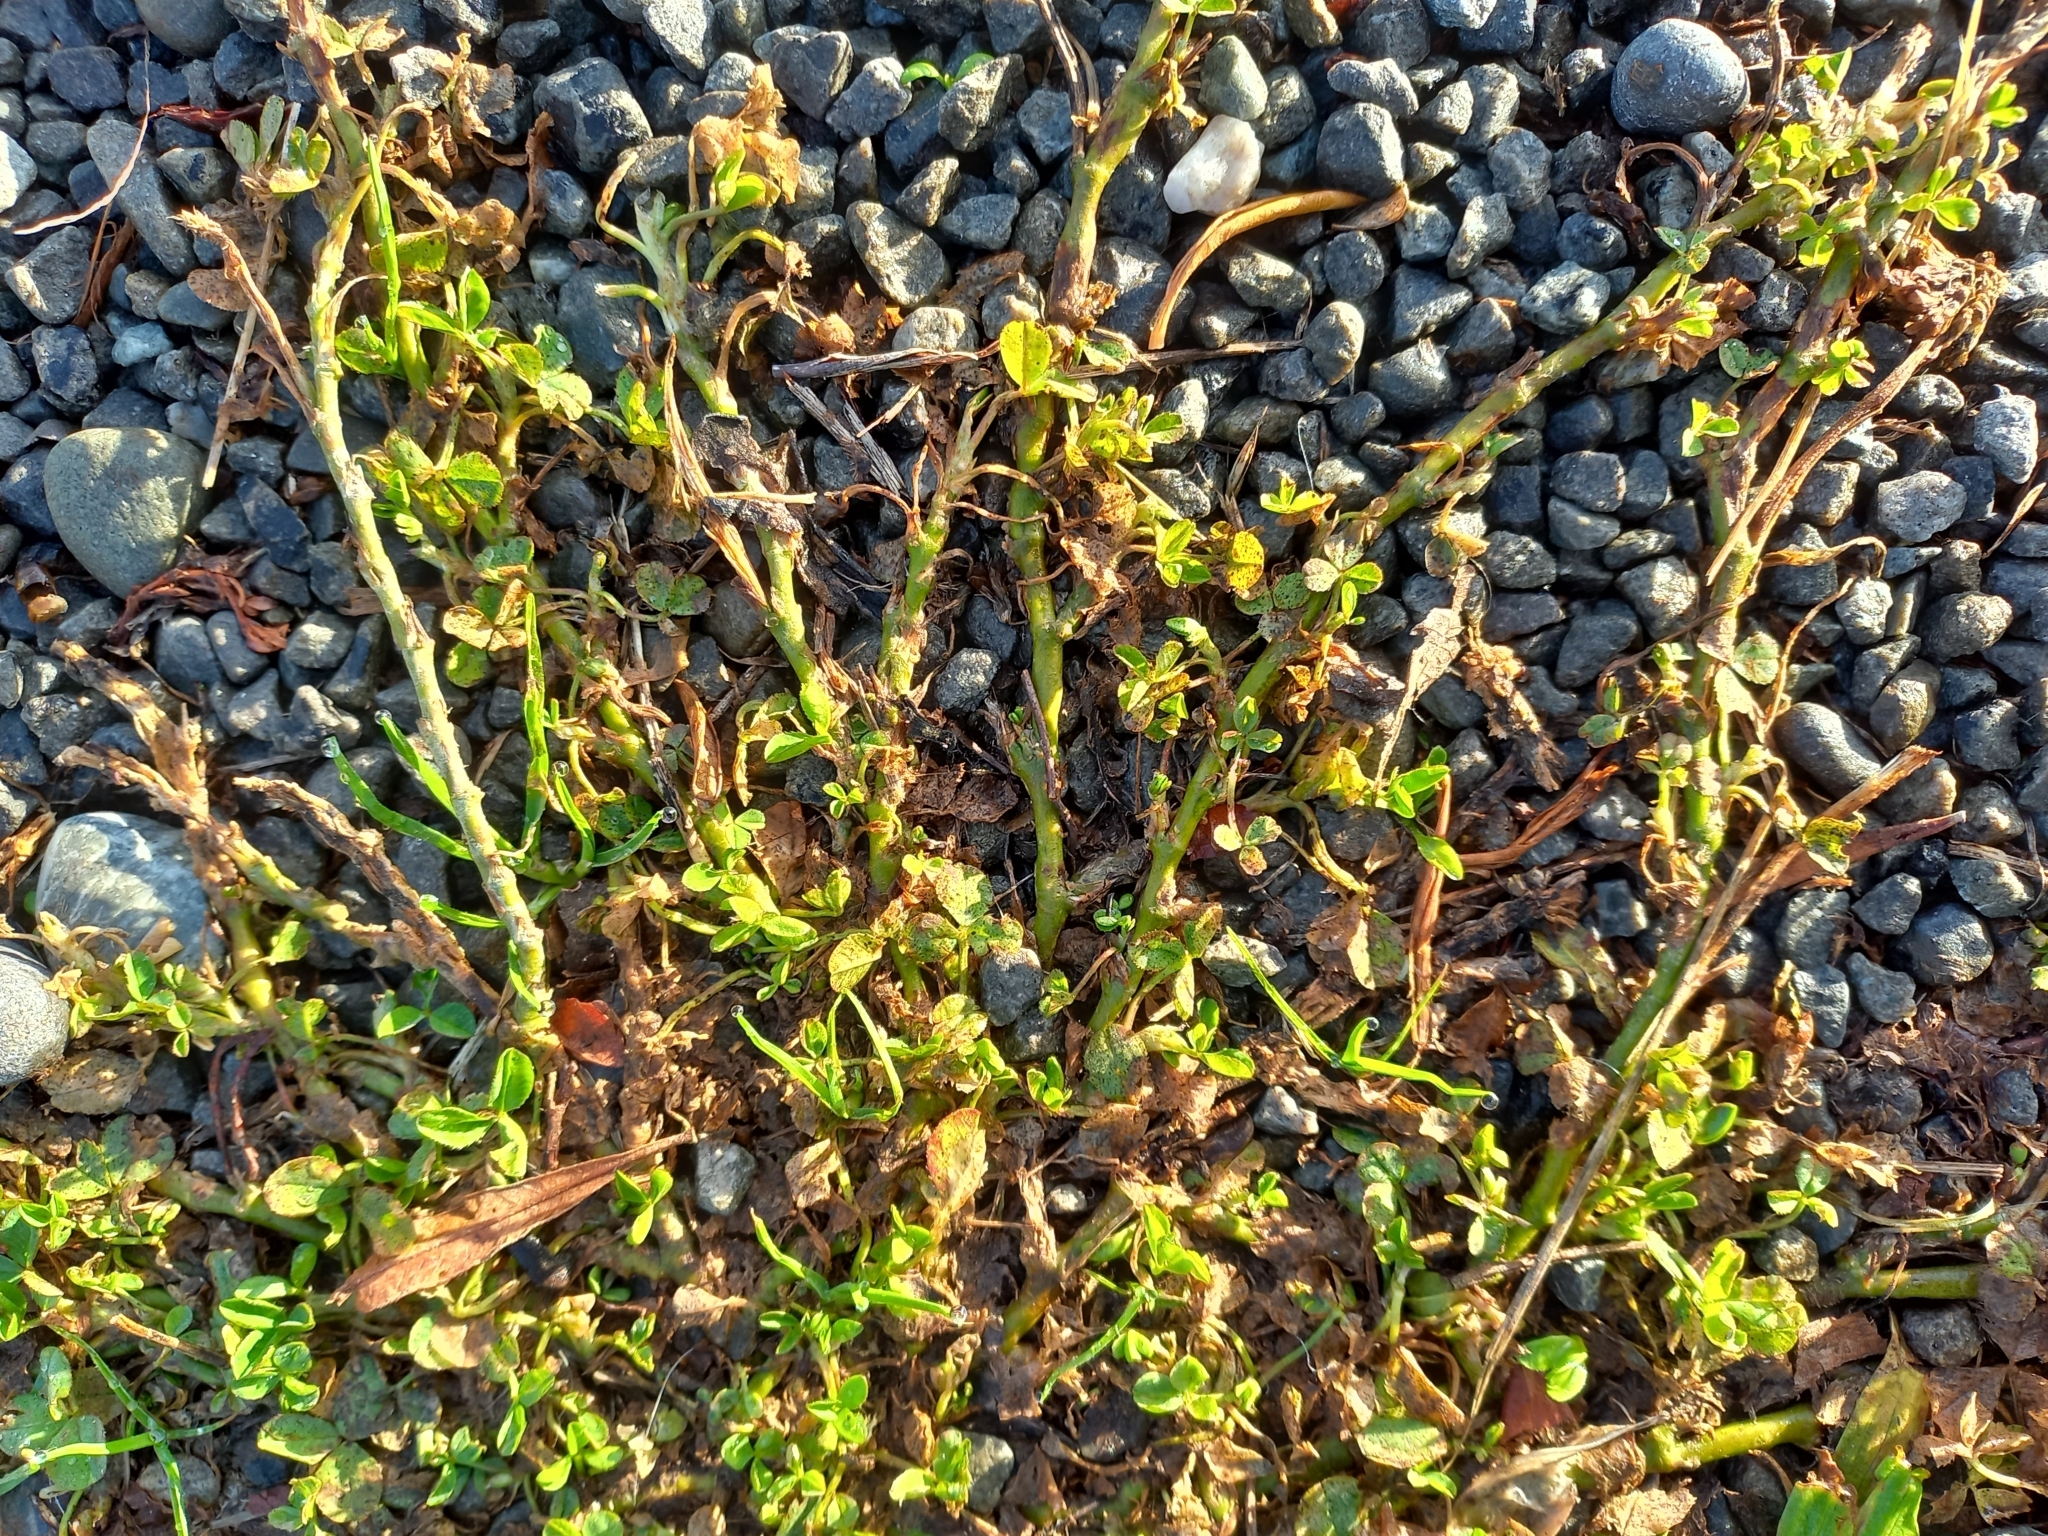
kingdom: Plantae
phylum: Tracheophyta
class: Magnoliopsida
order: Fabales
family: Fabaceae
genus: Trifolium
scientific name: Trifolium repens
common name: White clover
